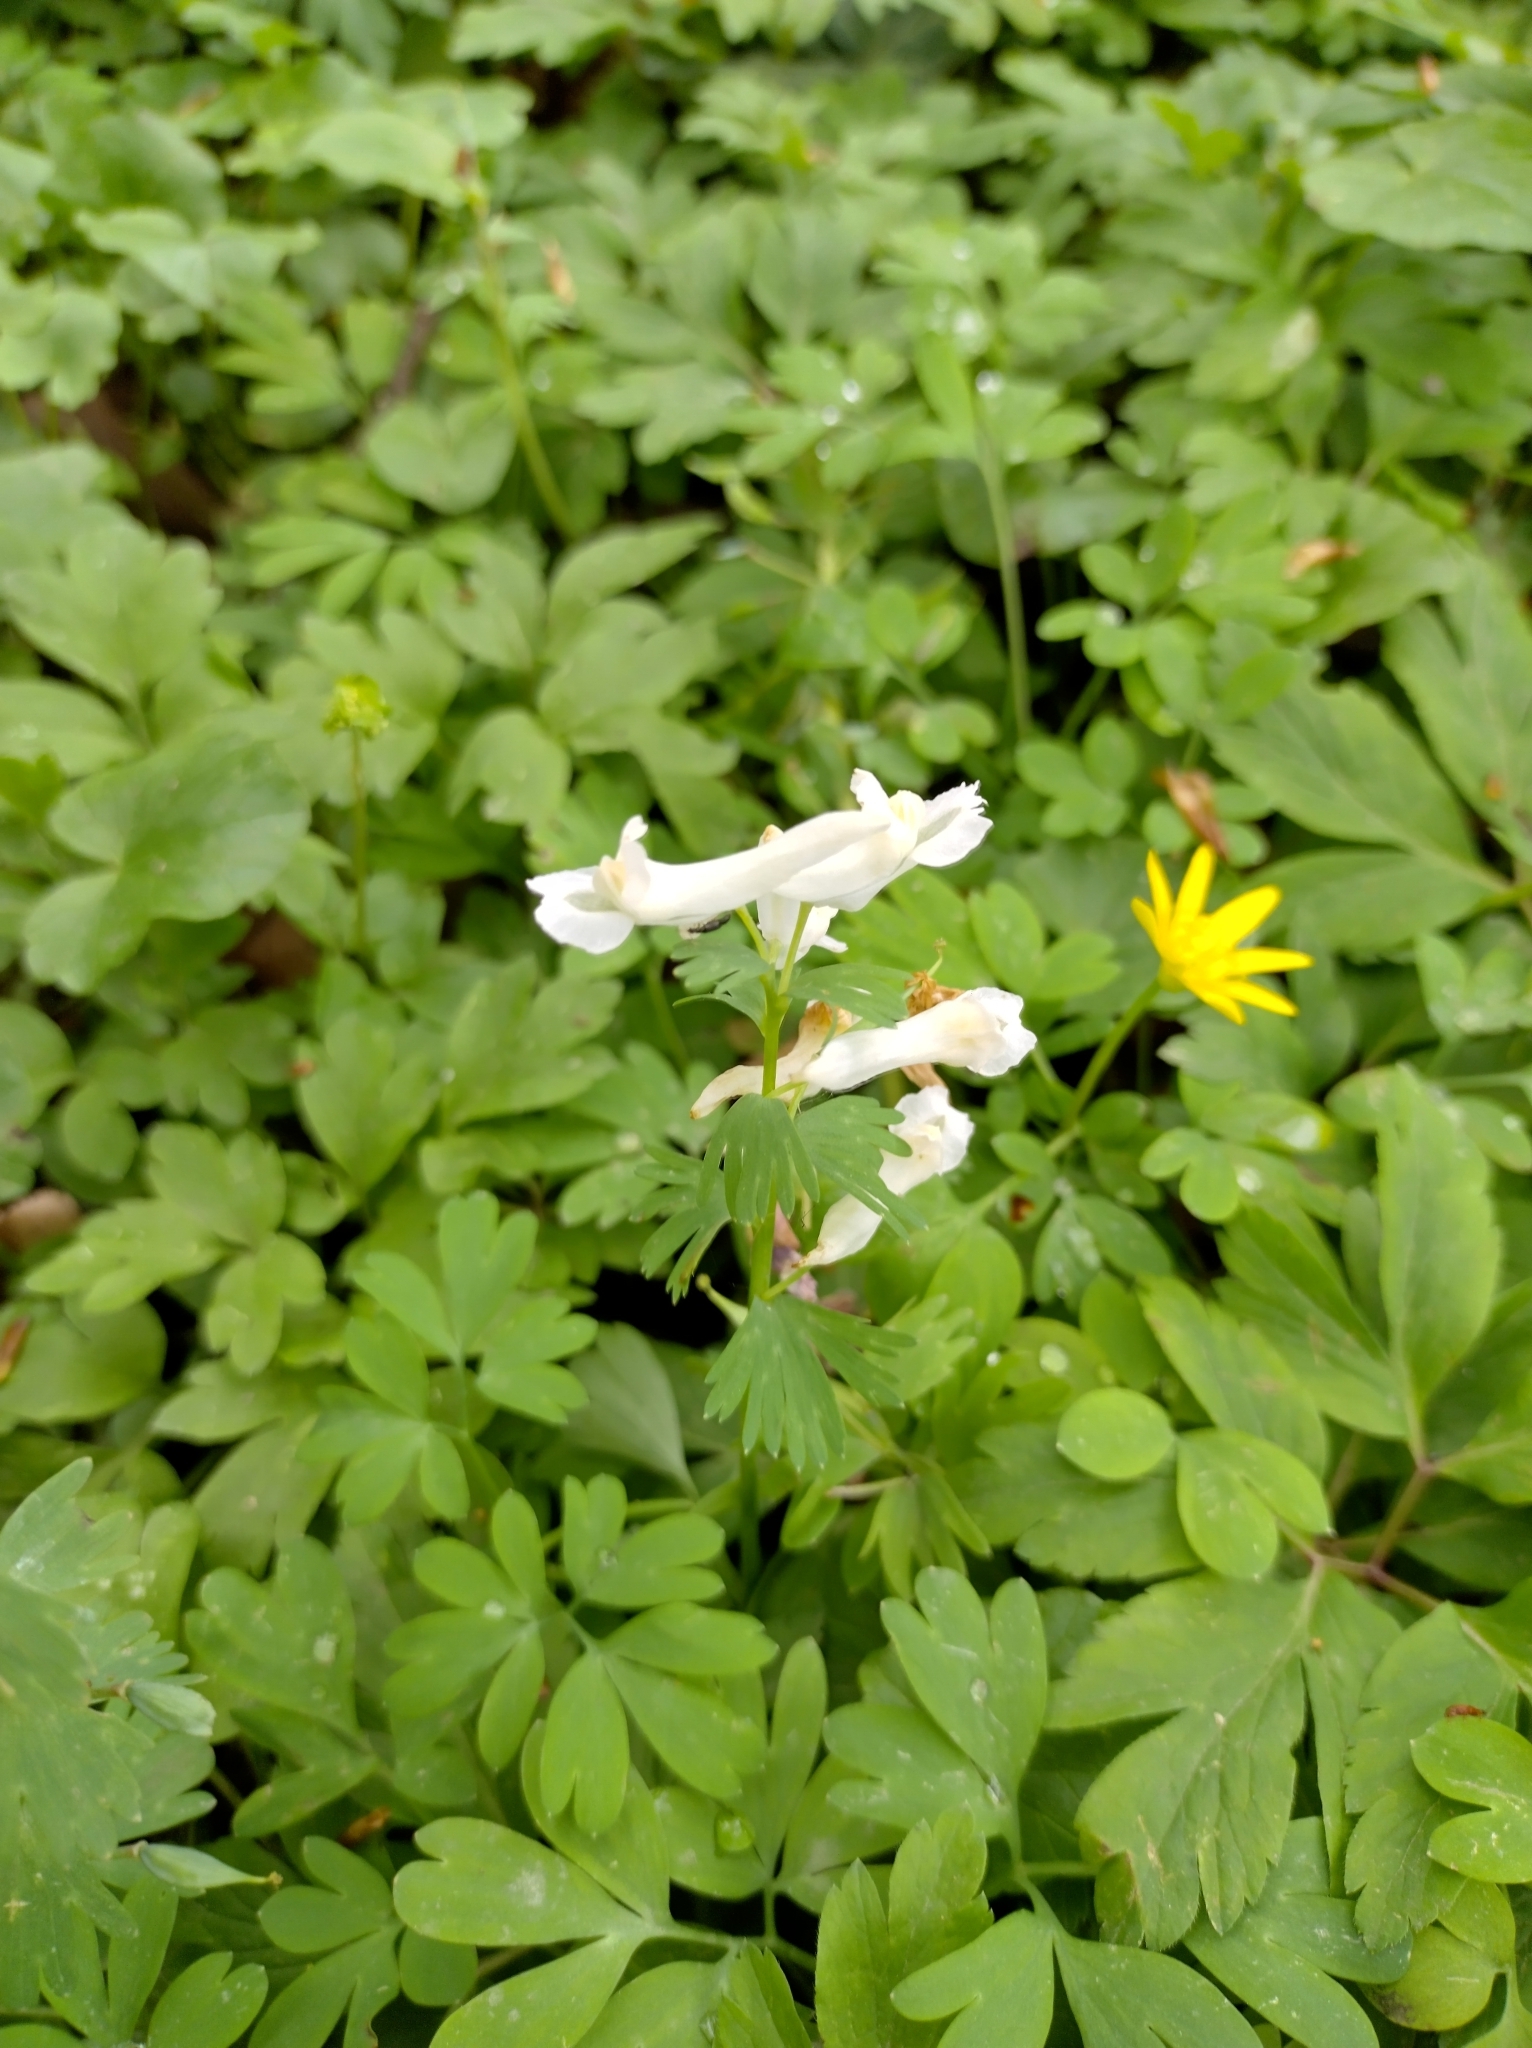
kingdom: Plantae
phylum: Tracheophyta
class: Magnoliopsida
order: Ranunculales
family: Papaveraceae
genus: Corydalis
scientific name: Corydalis solida
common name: Bird-in-a-bush
